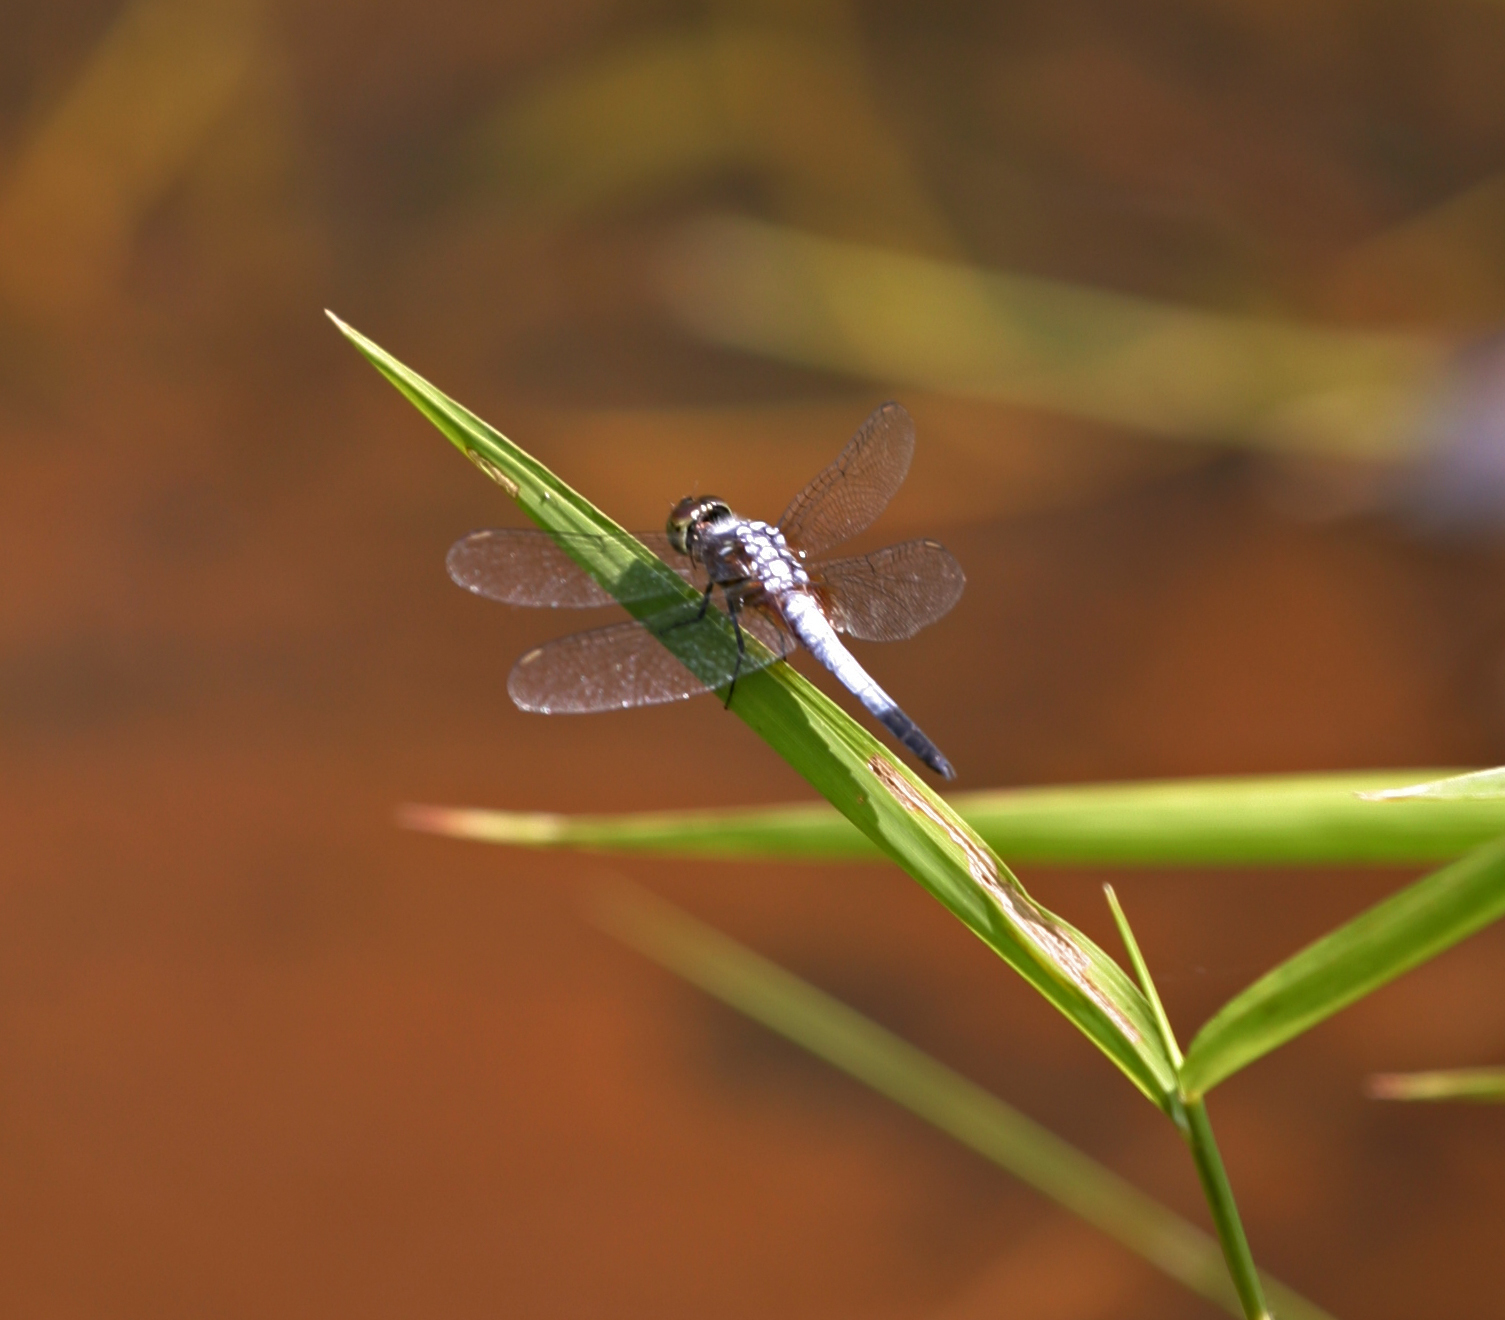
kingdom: Animalia
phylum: Arthropoda
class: Insecta
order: Odonata
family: Libellulidae
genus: Brachydiplax
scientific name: Brachydiplax chalybea
